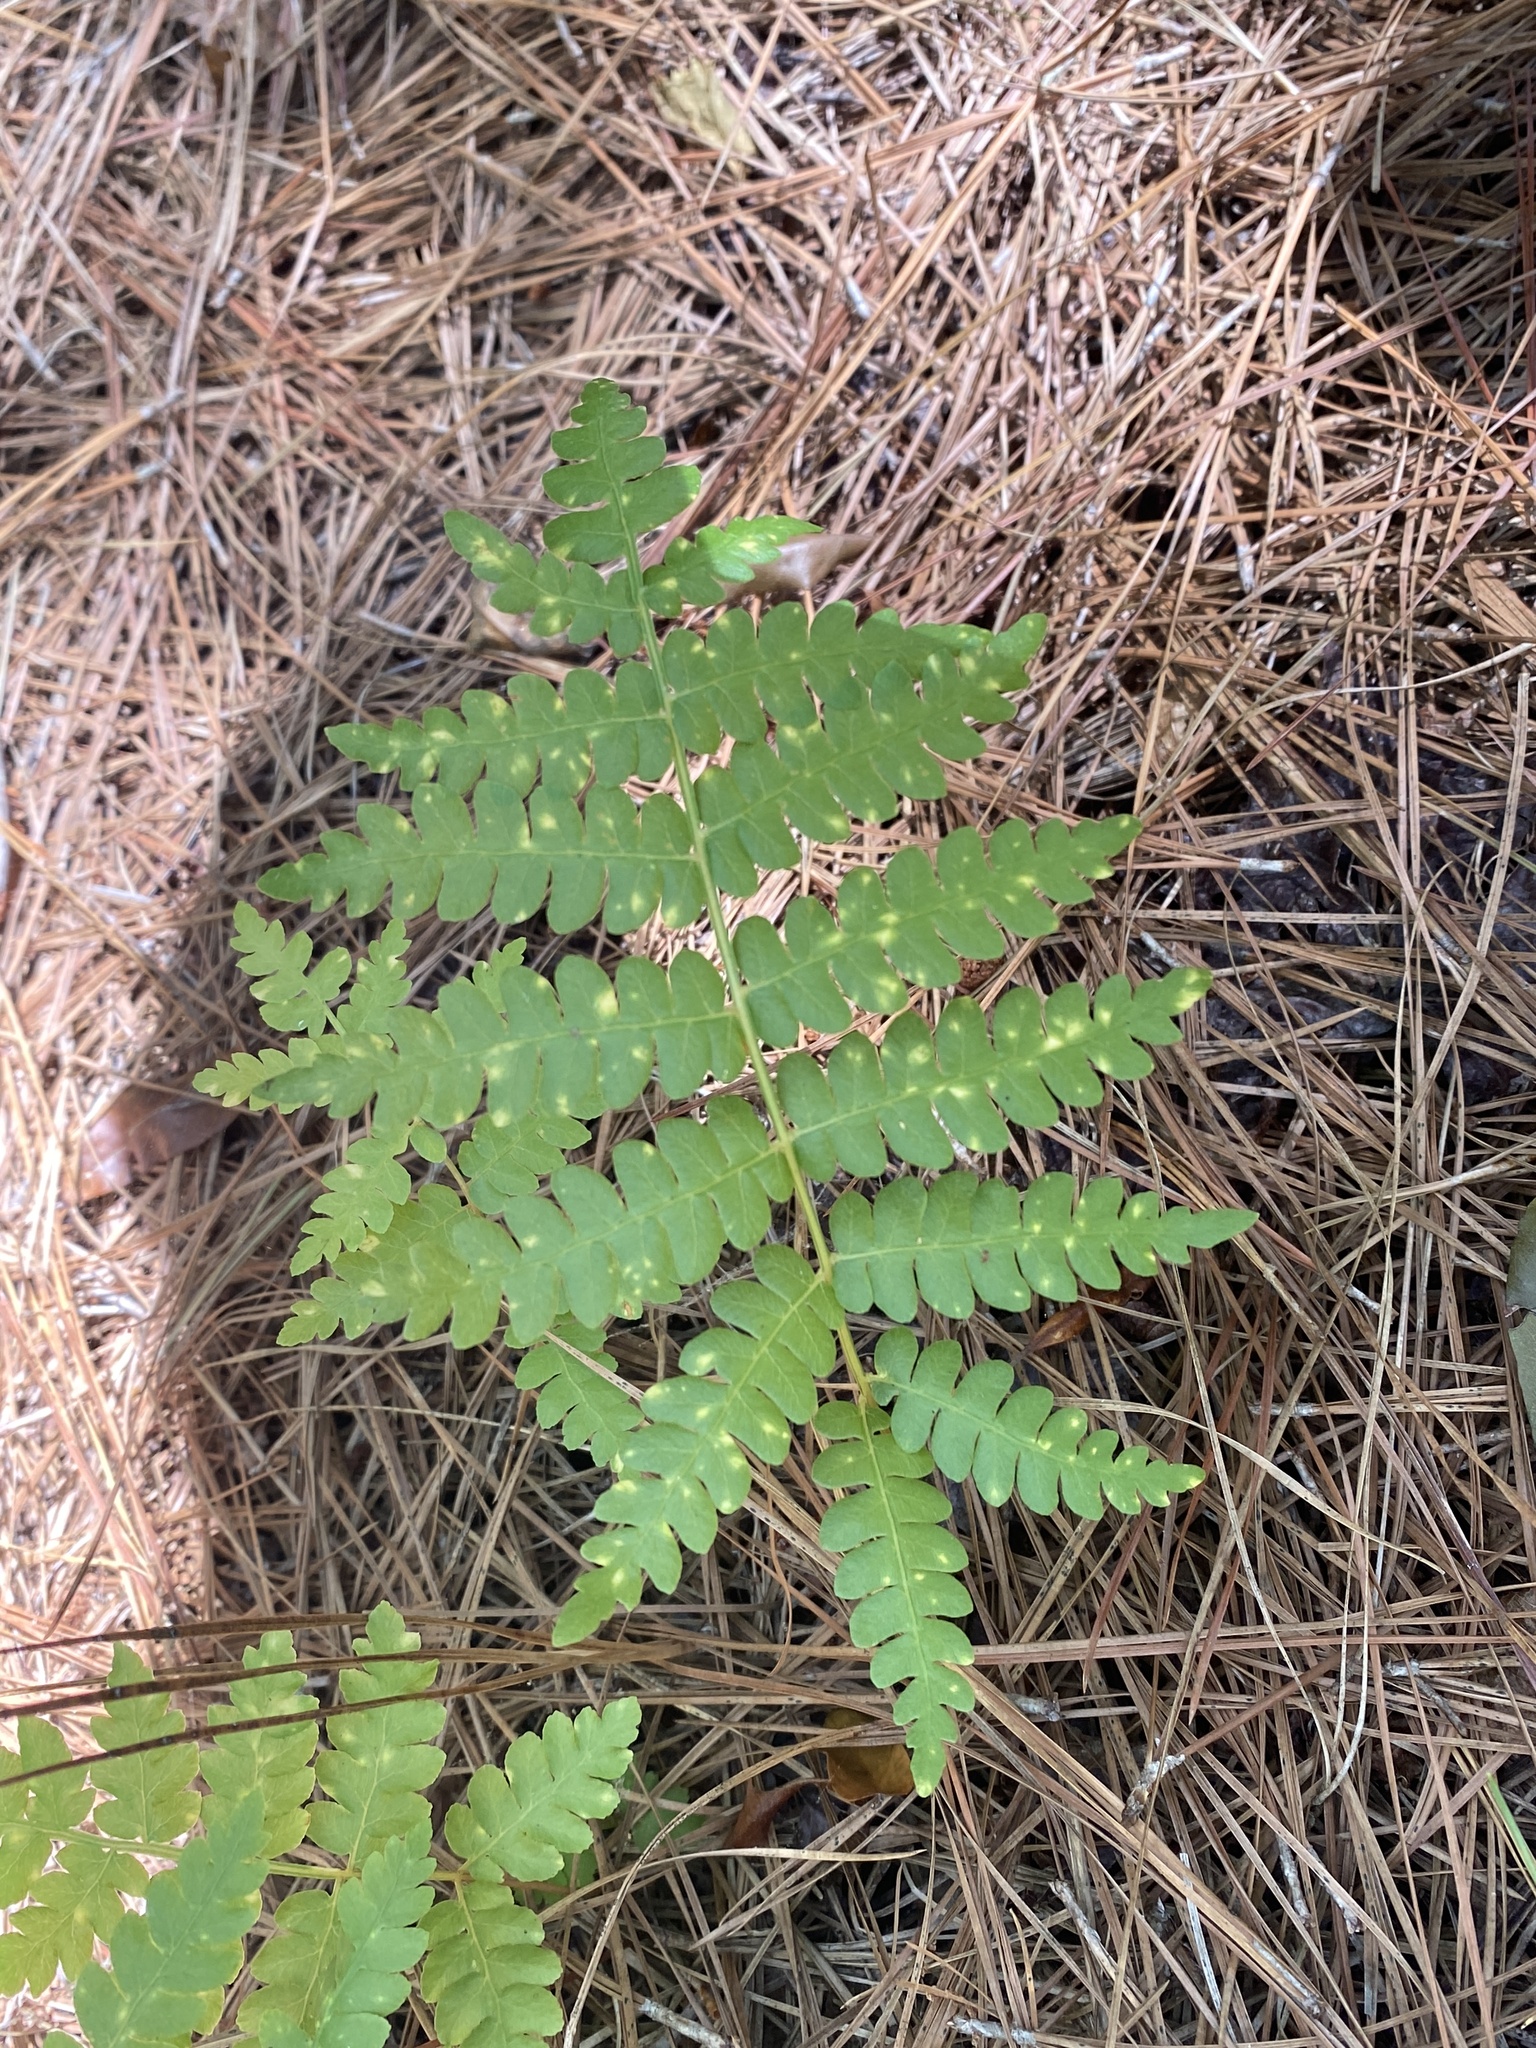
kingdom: Plantae
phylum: Tracheophyta
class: Polypodiopsida
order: Osmundales
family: Osmundaceae
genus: Osmundastrum
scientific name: Osmundastrum cinnamomeum
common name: Cinnamon fern
